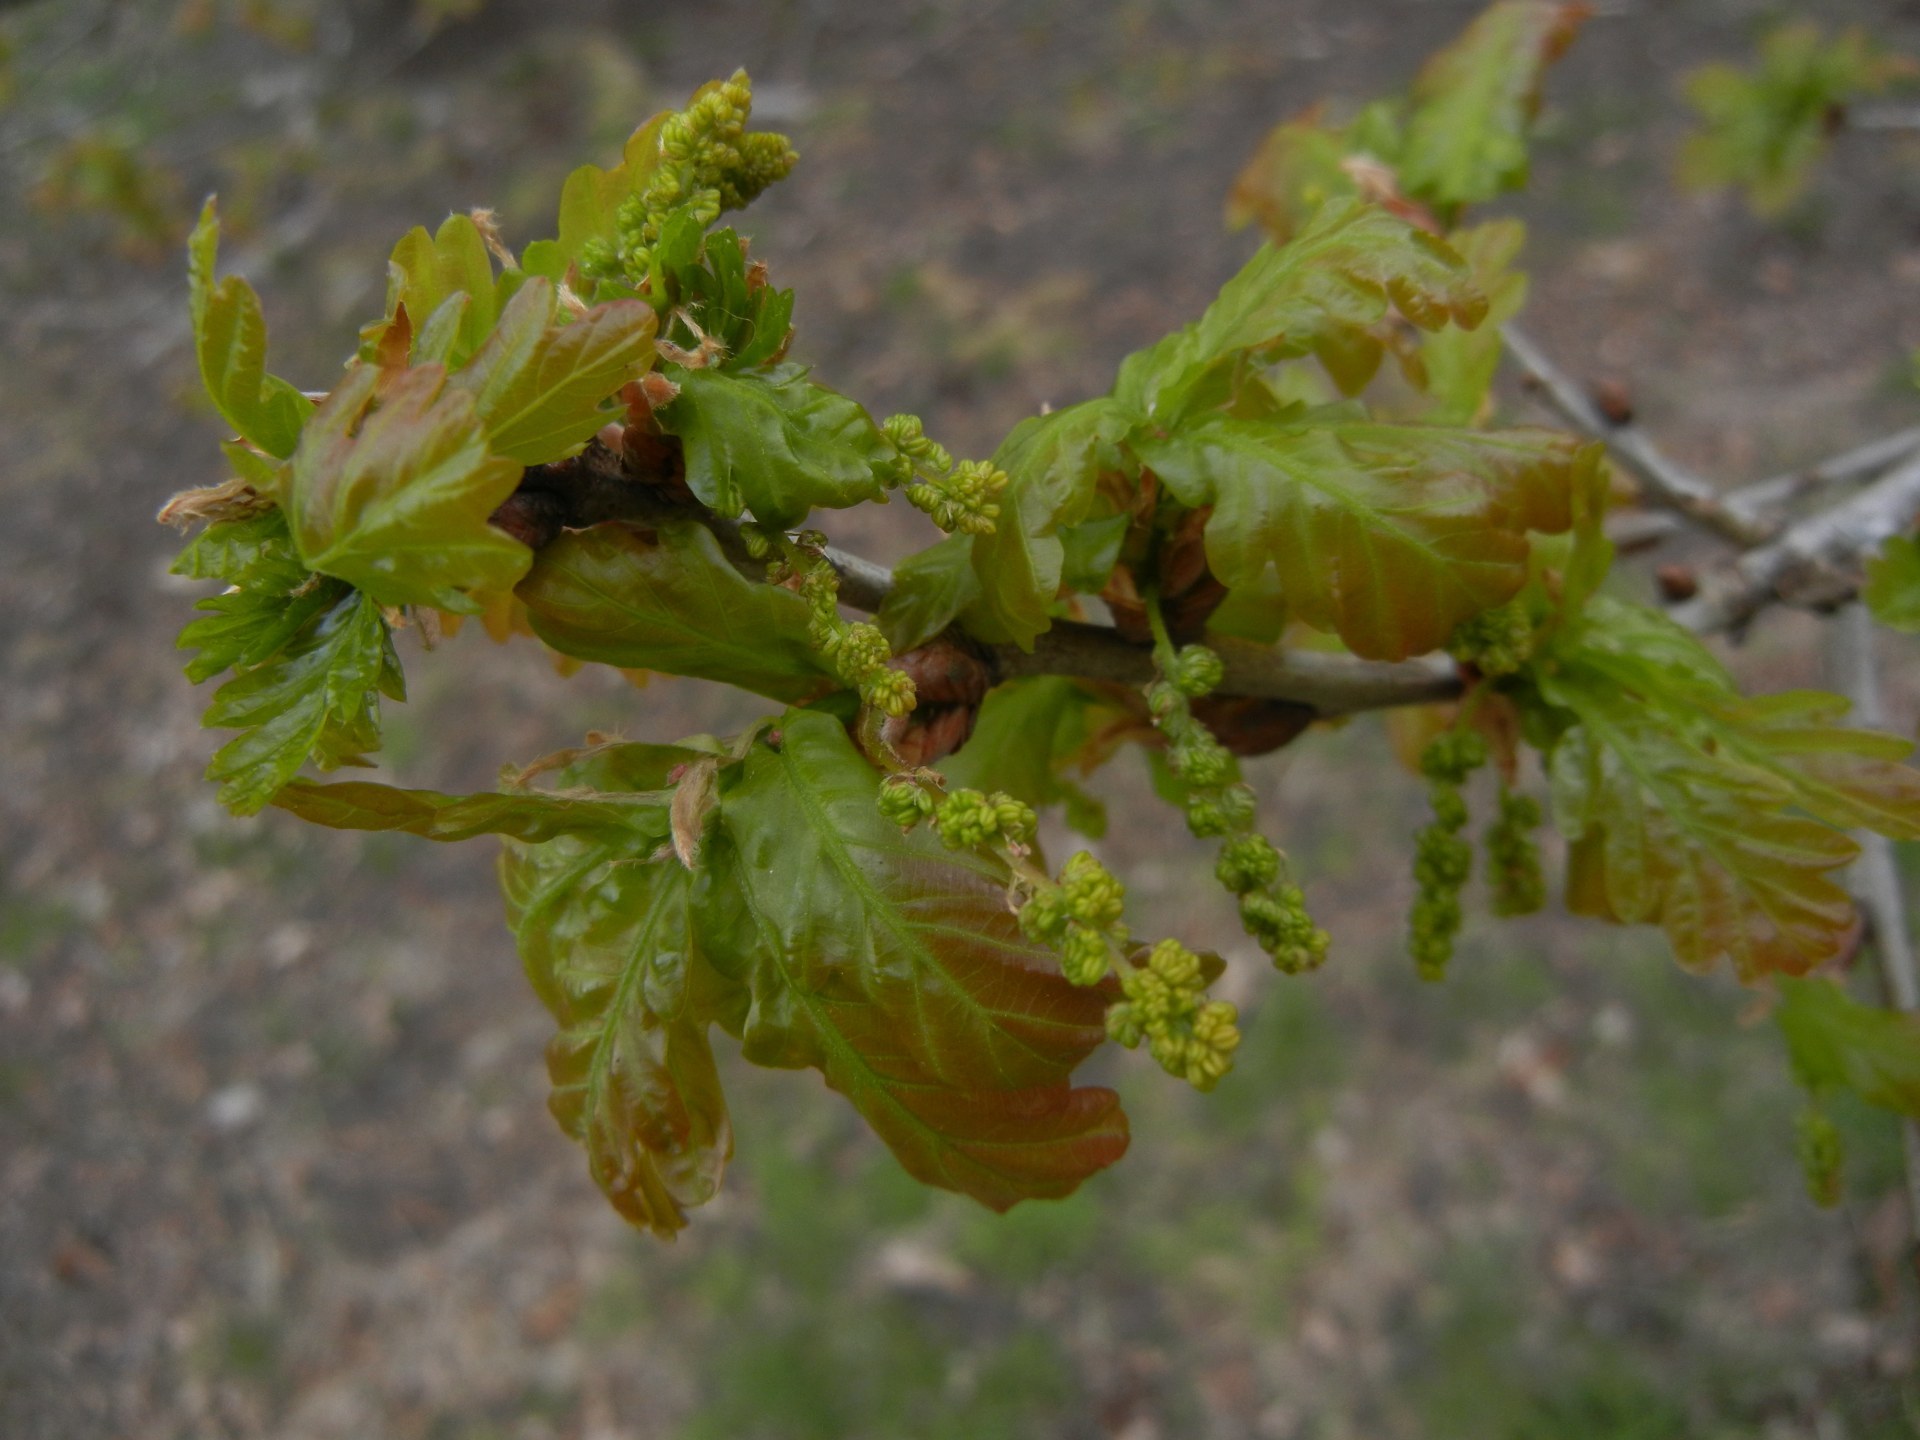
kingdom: Plantae
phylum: Tracheophyta
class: Magnoliopsida
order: Fagales
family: Fagaceae
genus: Quercus
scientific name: Quercus robur
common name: Pedunculate oak
